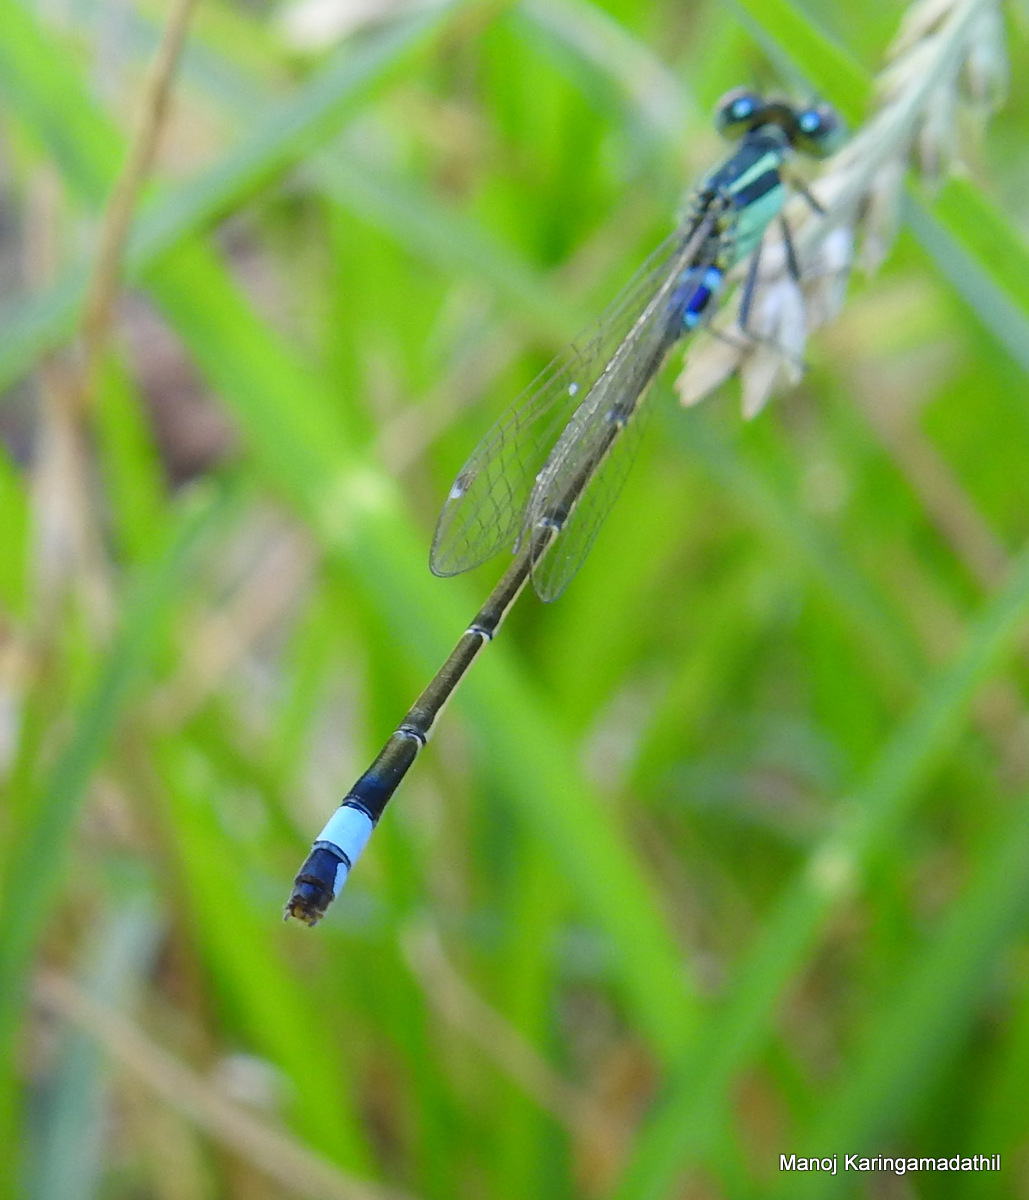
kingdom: Animalia
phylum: Arthropoda
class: Insecta
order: Odonata
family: Coenagrionidae
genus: Ischnura
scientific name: Ischnura senegalensis
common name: Tropical bluetail
